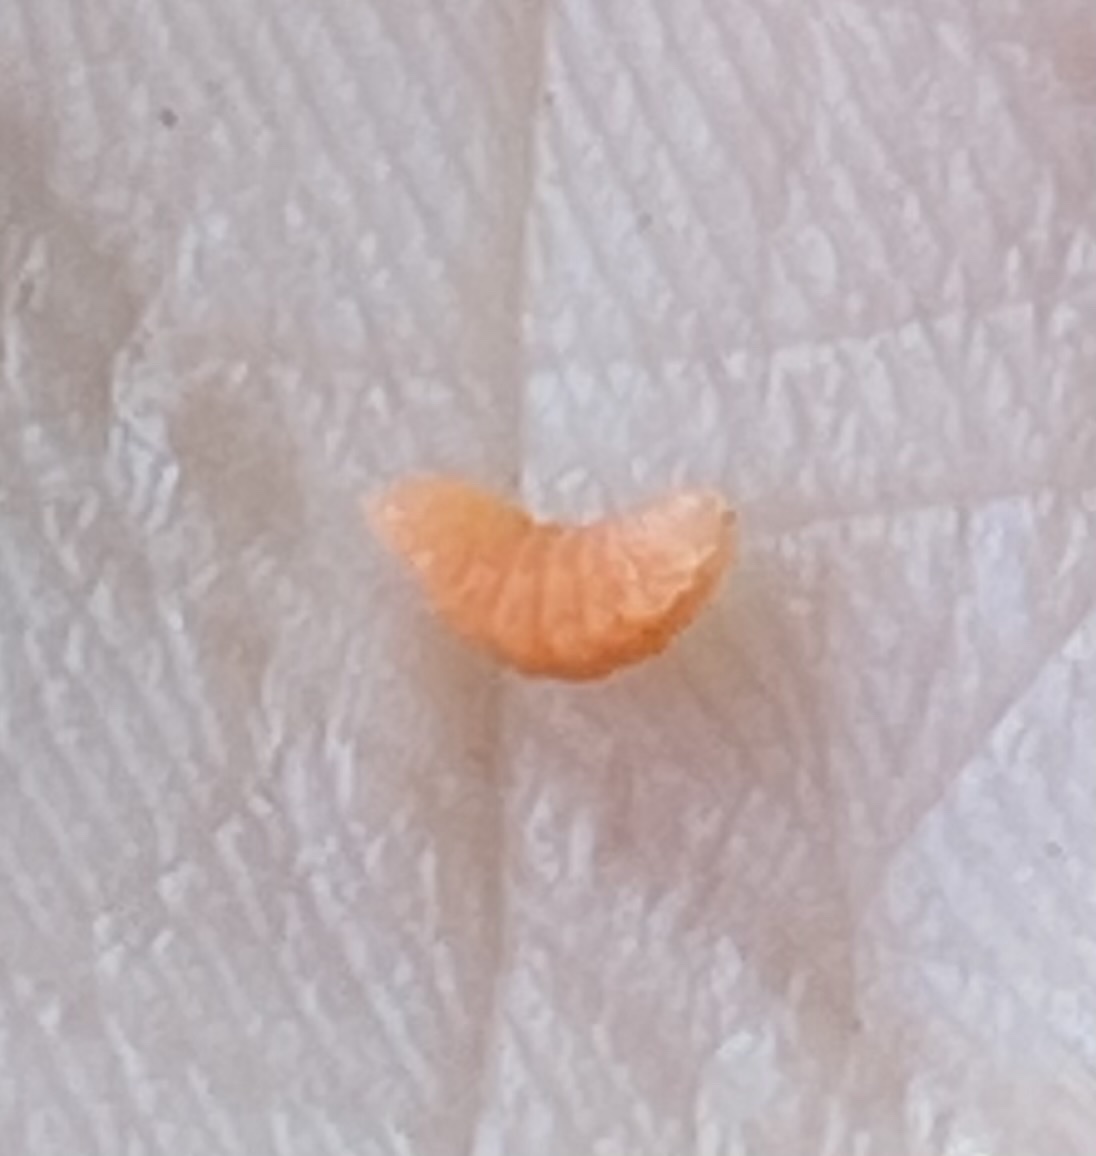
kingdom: Animalia
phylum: Arthropoda
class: Insecta
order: Diptera
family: Cecidomyiidae
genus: Polystepha
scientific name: Polystepha pilulae
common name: Oak leaf gall midge
